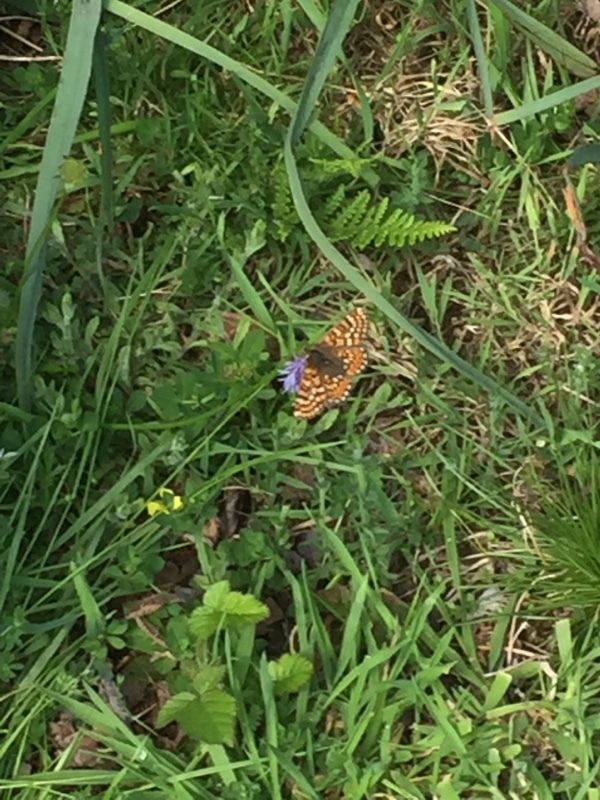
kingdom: Animalia
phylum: Arthropoda
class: Insecta
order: Lepidoptera
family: Nymphalidae
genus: Euphydryas
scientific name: Euphydryas aurinia
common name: Marsh fritillary
